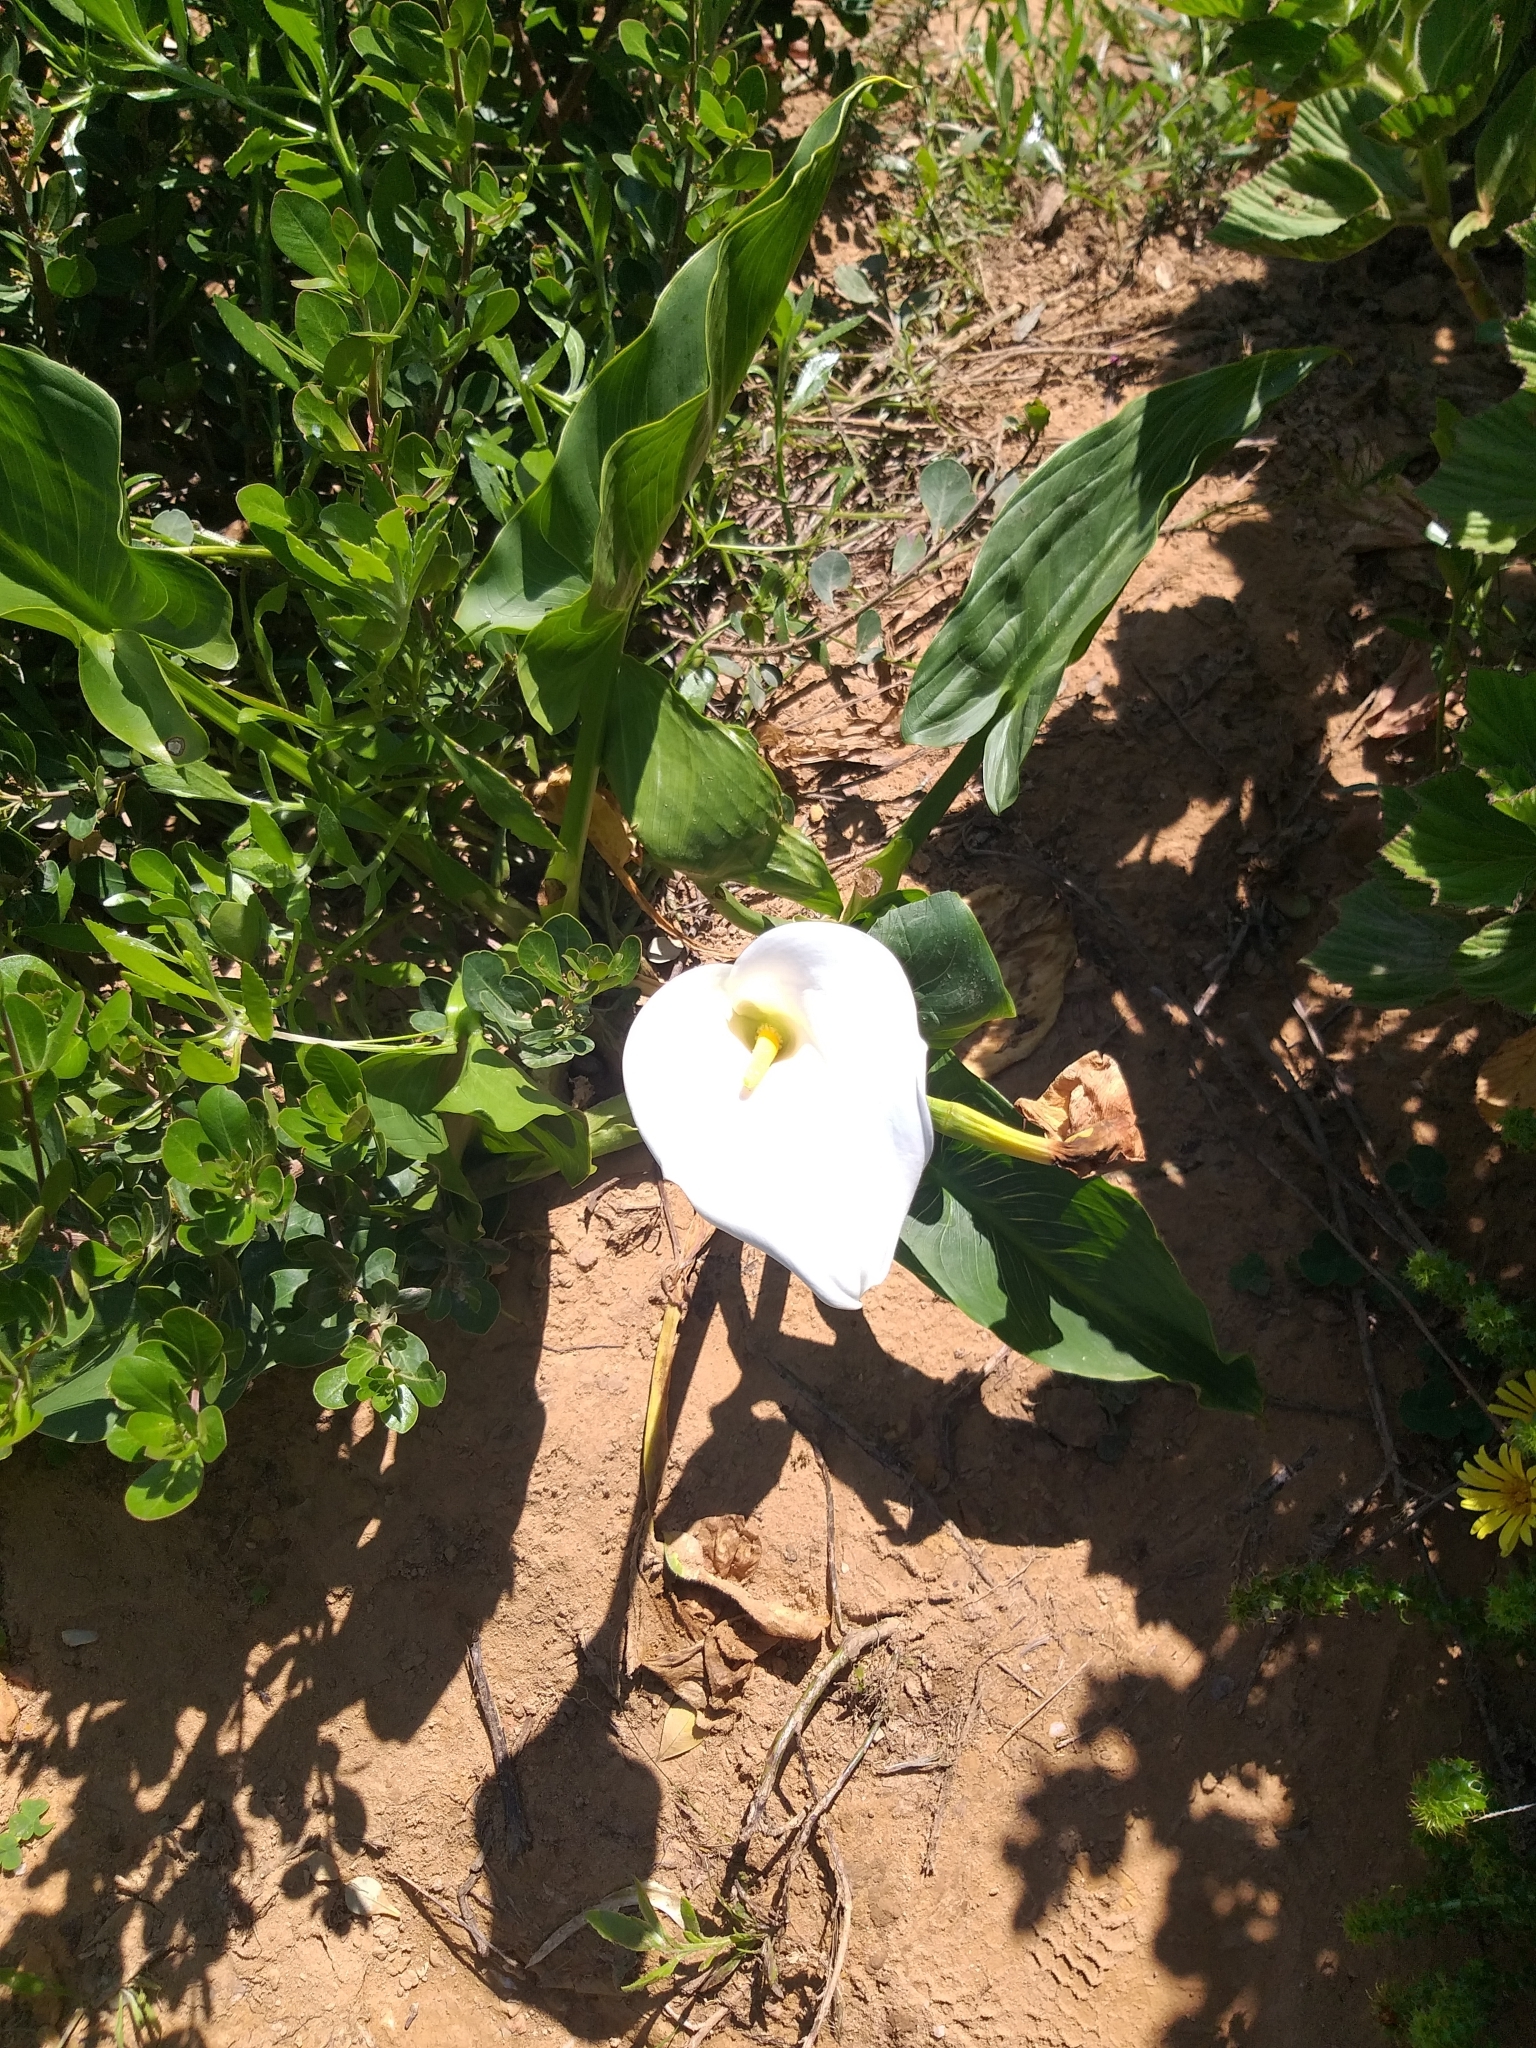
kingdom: Plantae
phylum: Tracheophyta
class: Liliopsida
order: Alismatales
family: Araceae
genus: Zantedeschia
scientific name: Zantedeschia aethiopica
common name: Altar-lily
